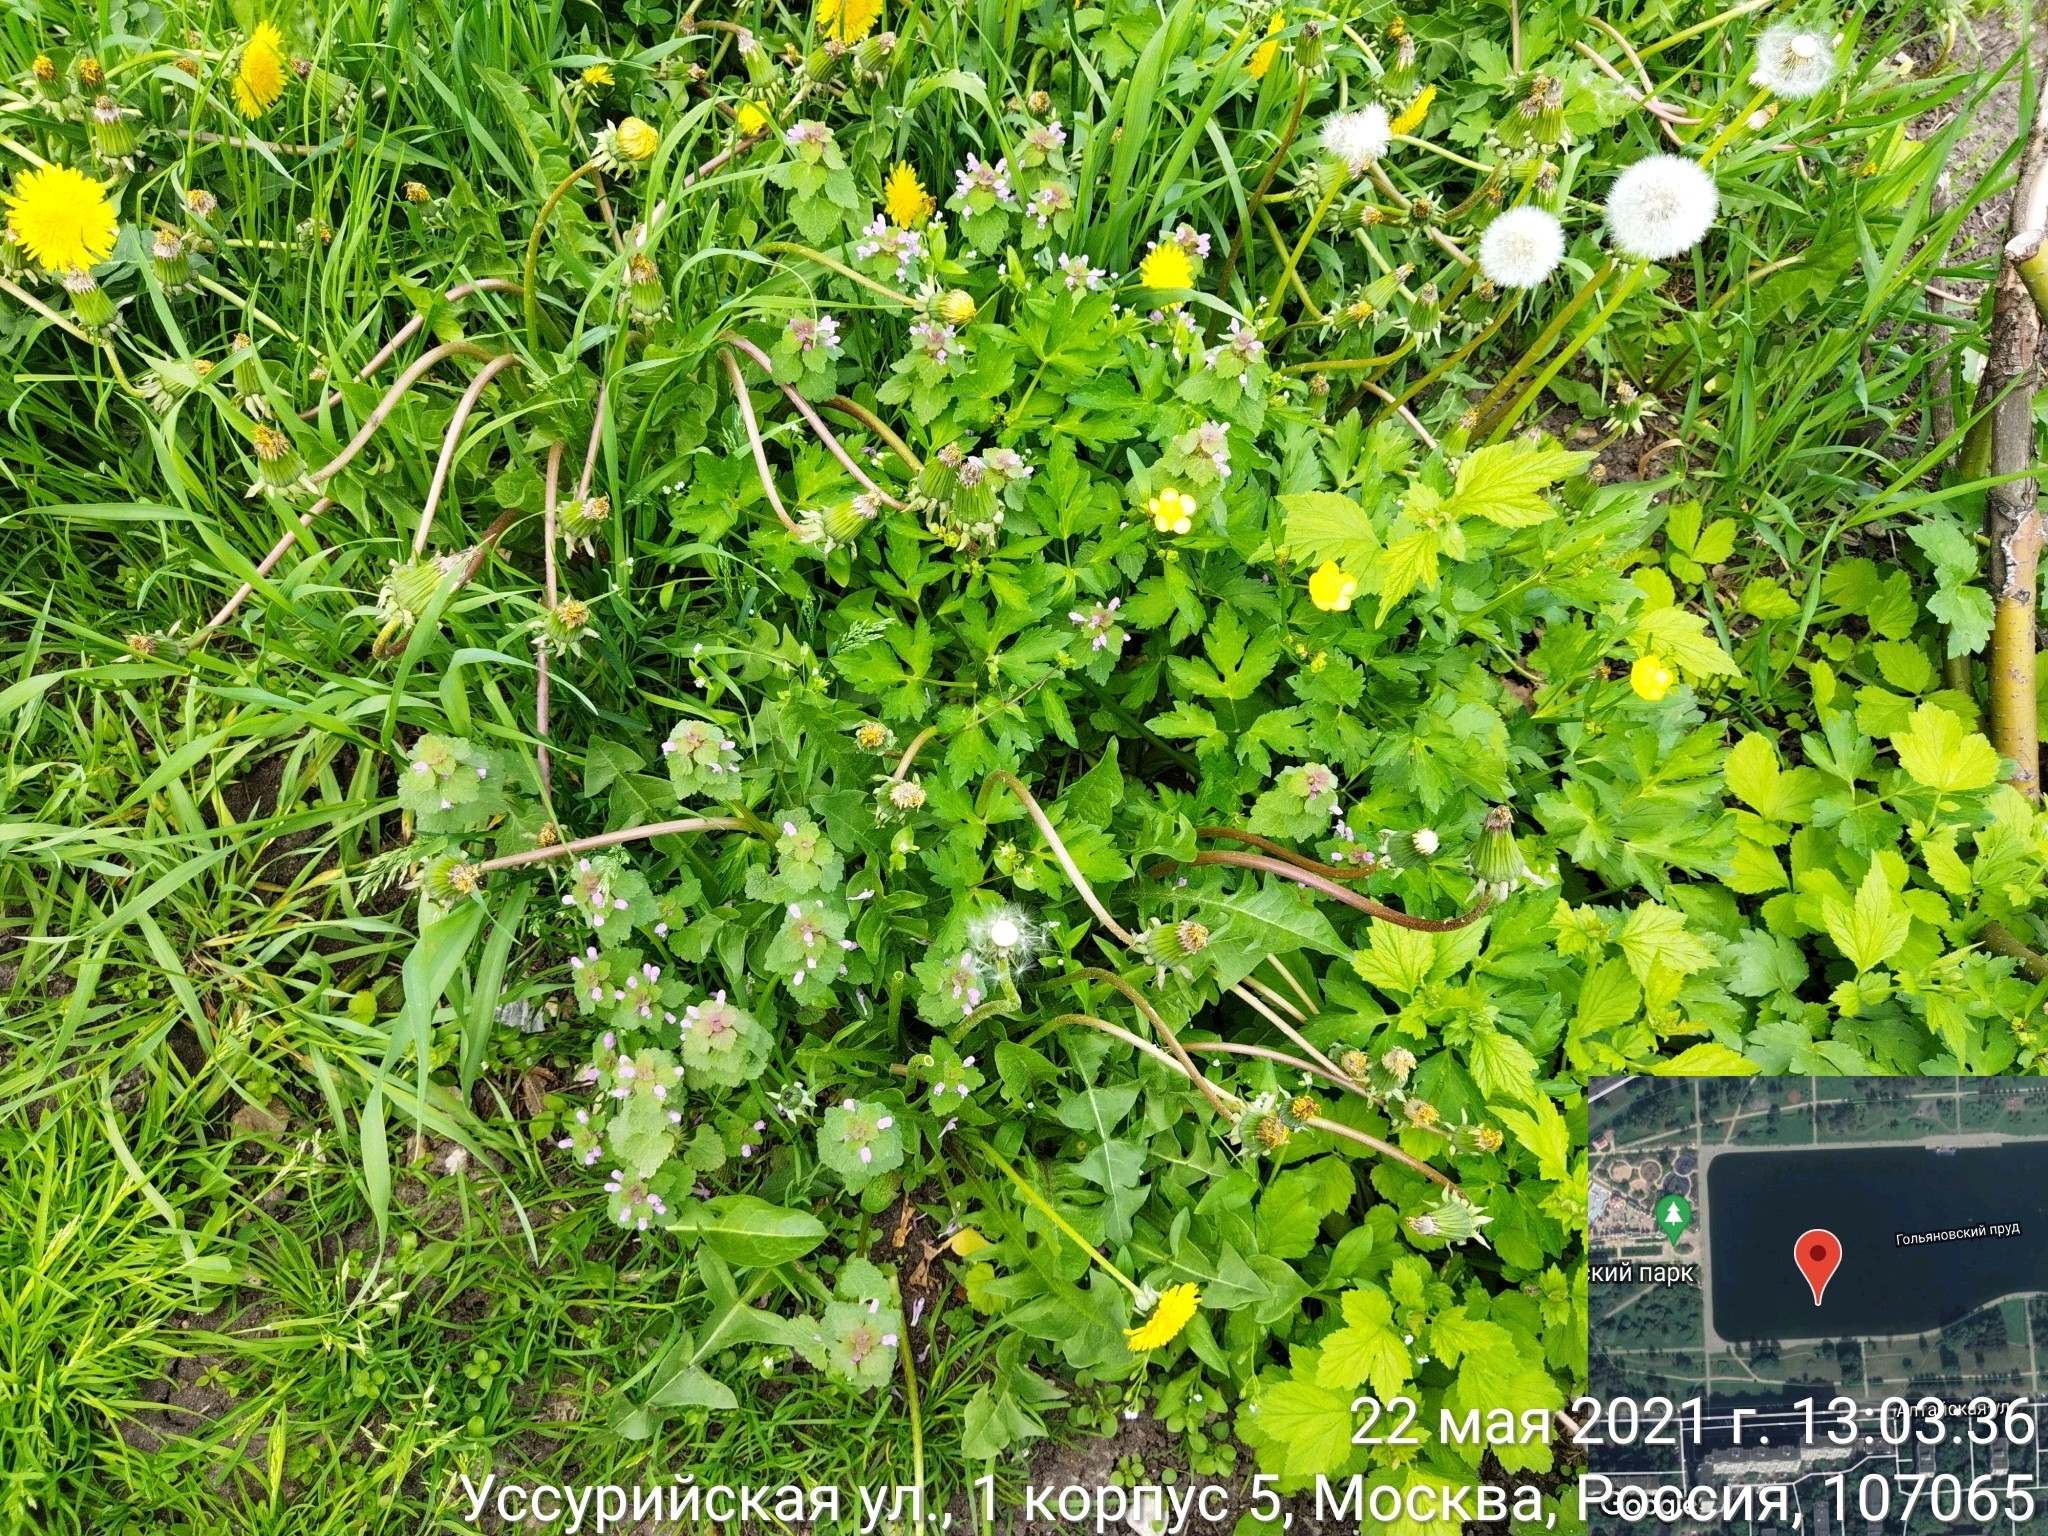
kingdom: Plantae
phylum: Tracheophyta
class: Magnoliopsida
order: Lamiales
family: Lamiaceae
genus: Lamium
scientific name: Lamium purpureum
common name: Red dead-nettle
